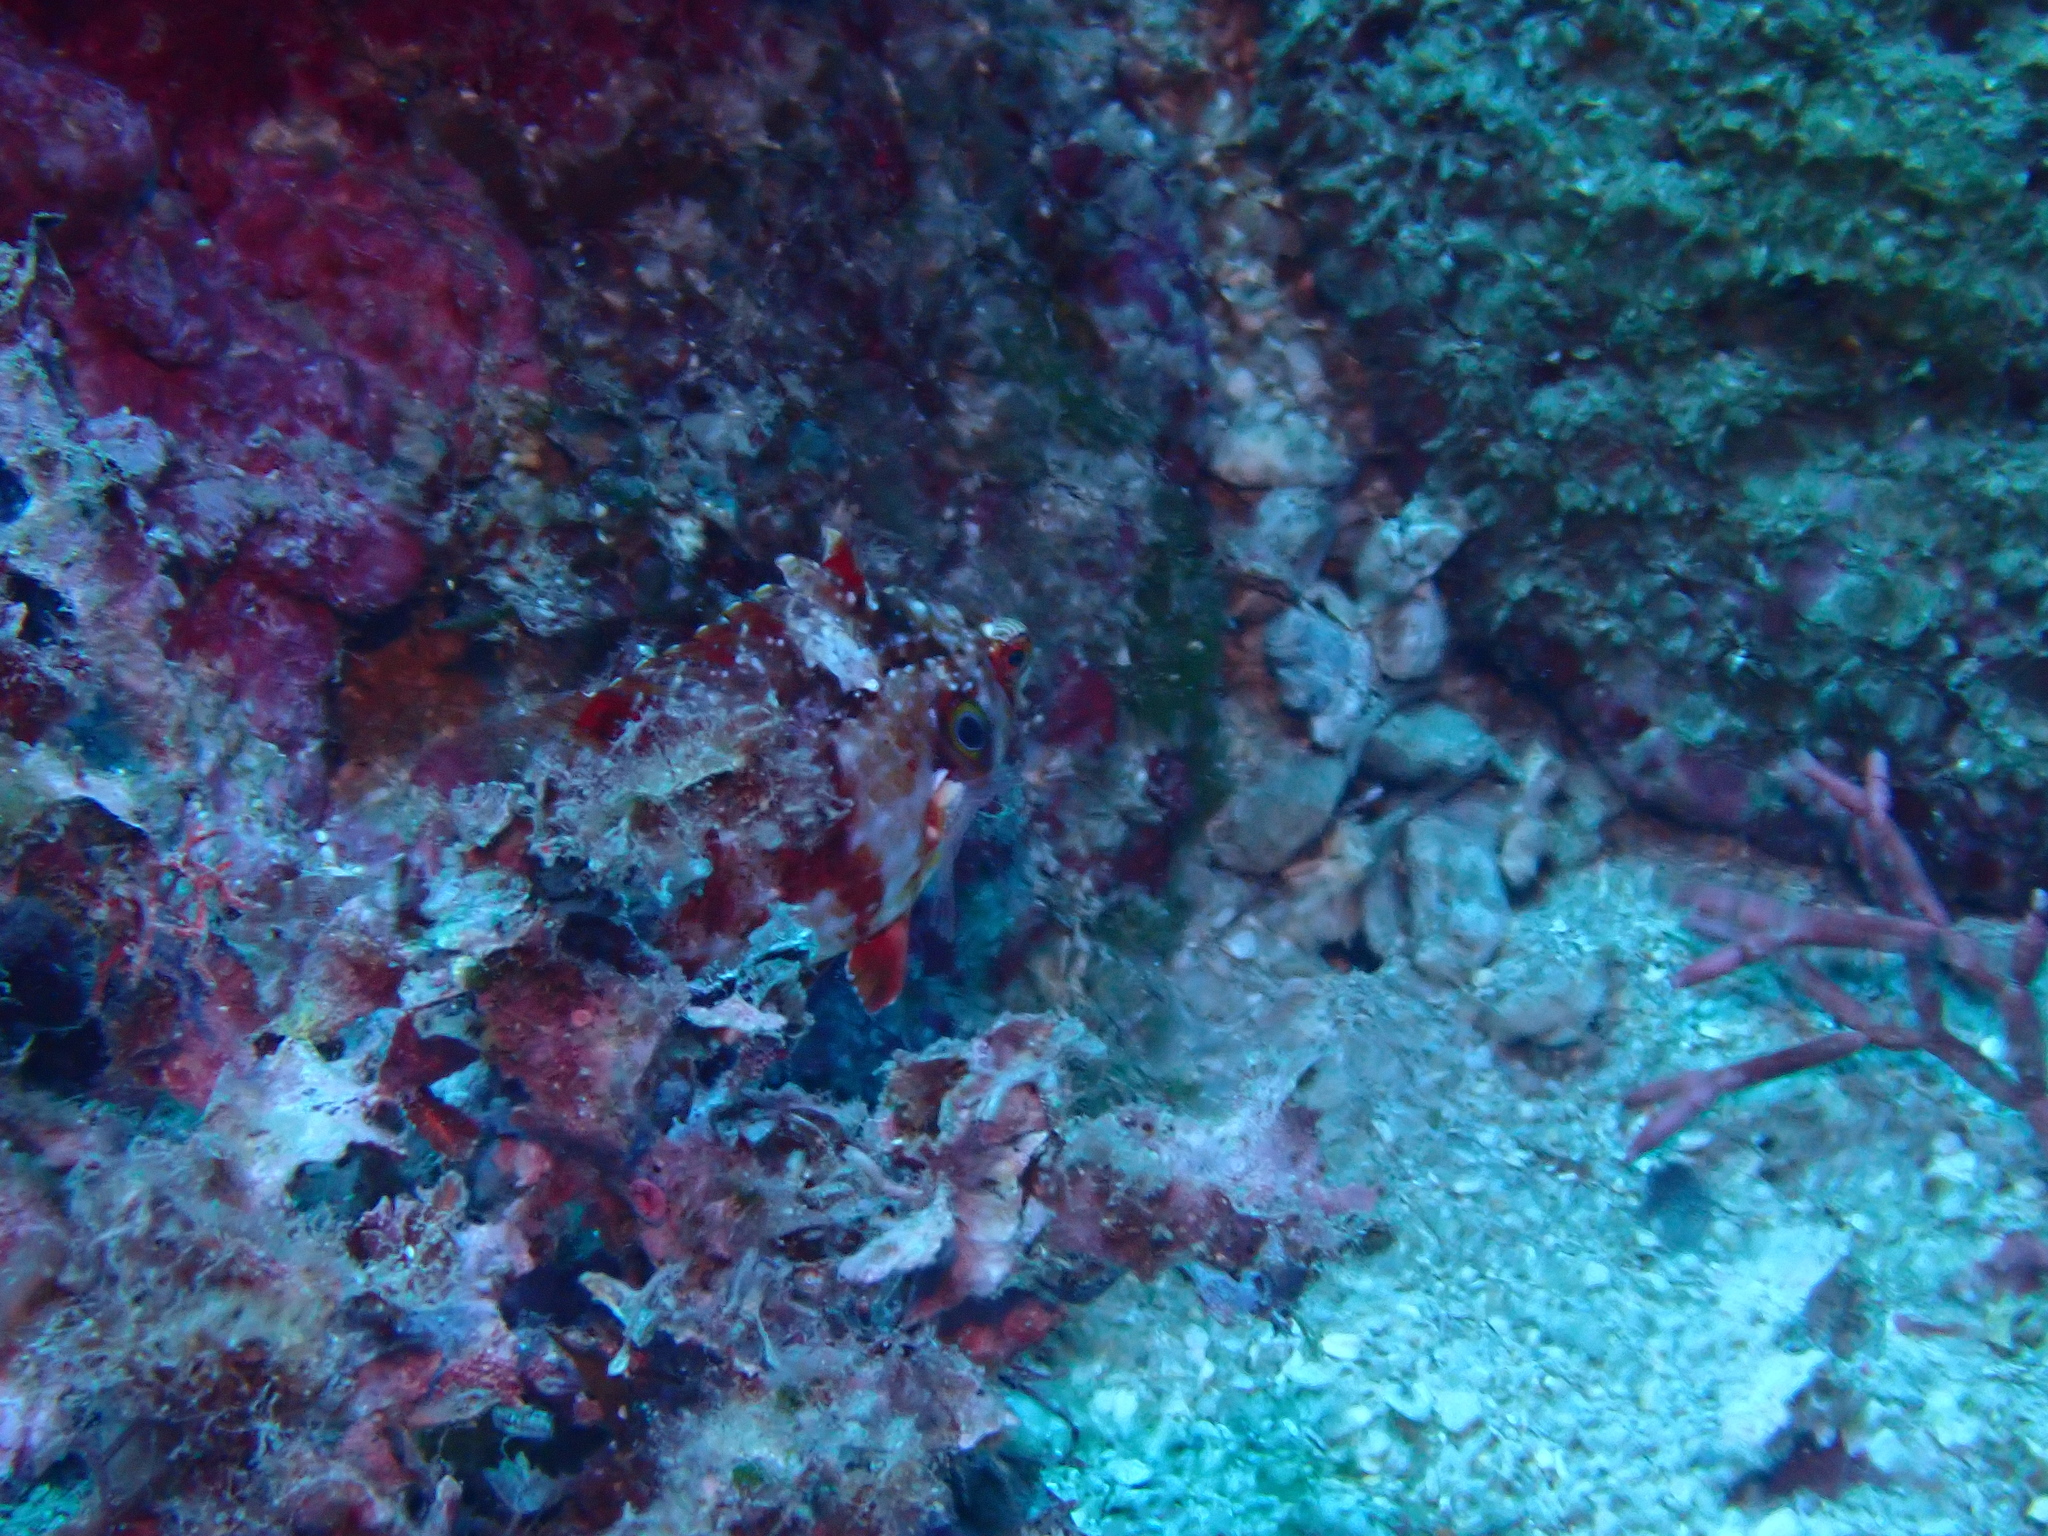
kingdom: Animalia
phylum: Chordata
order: Perciformes
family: Labridae
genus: Pteragogus
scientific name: Pteragogus enneacanthus
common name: Cockerel wrasse
